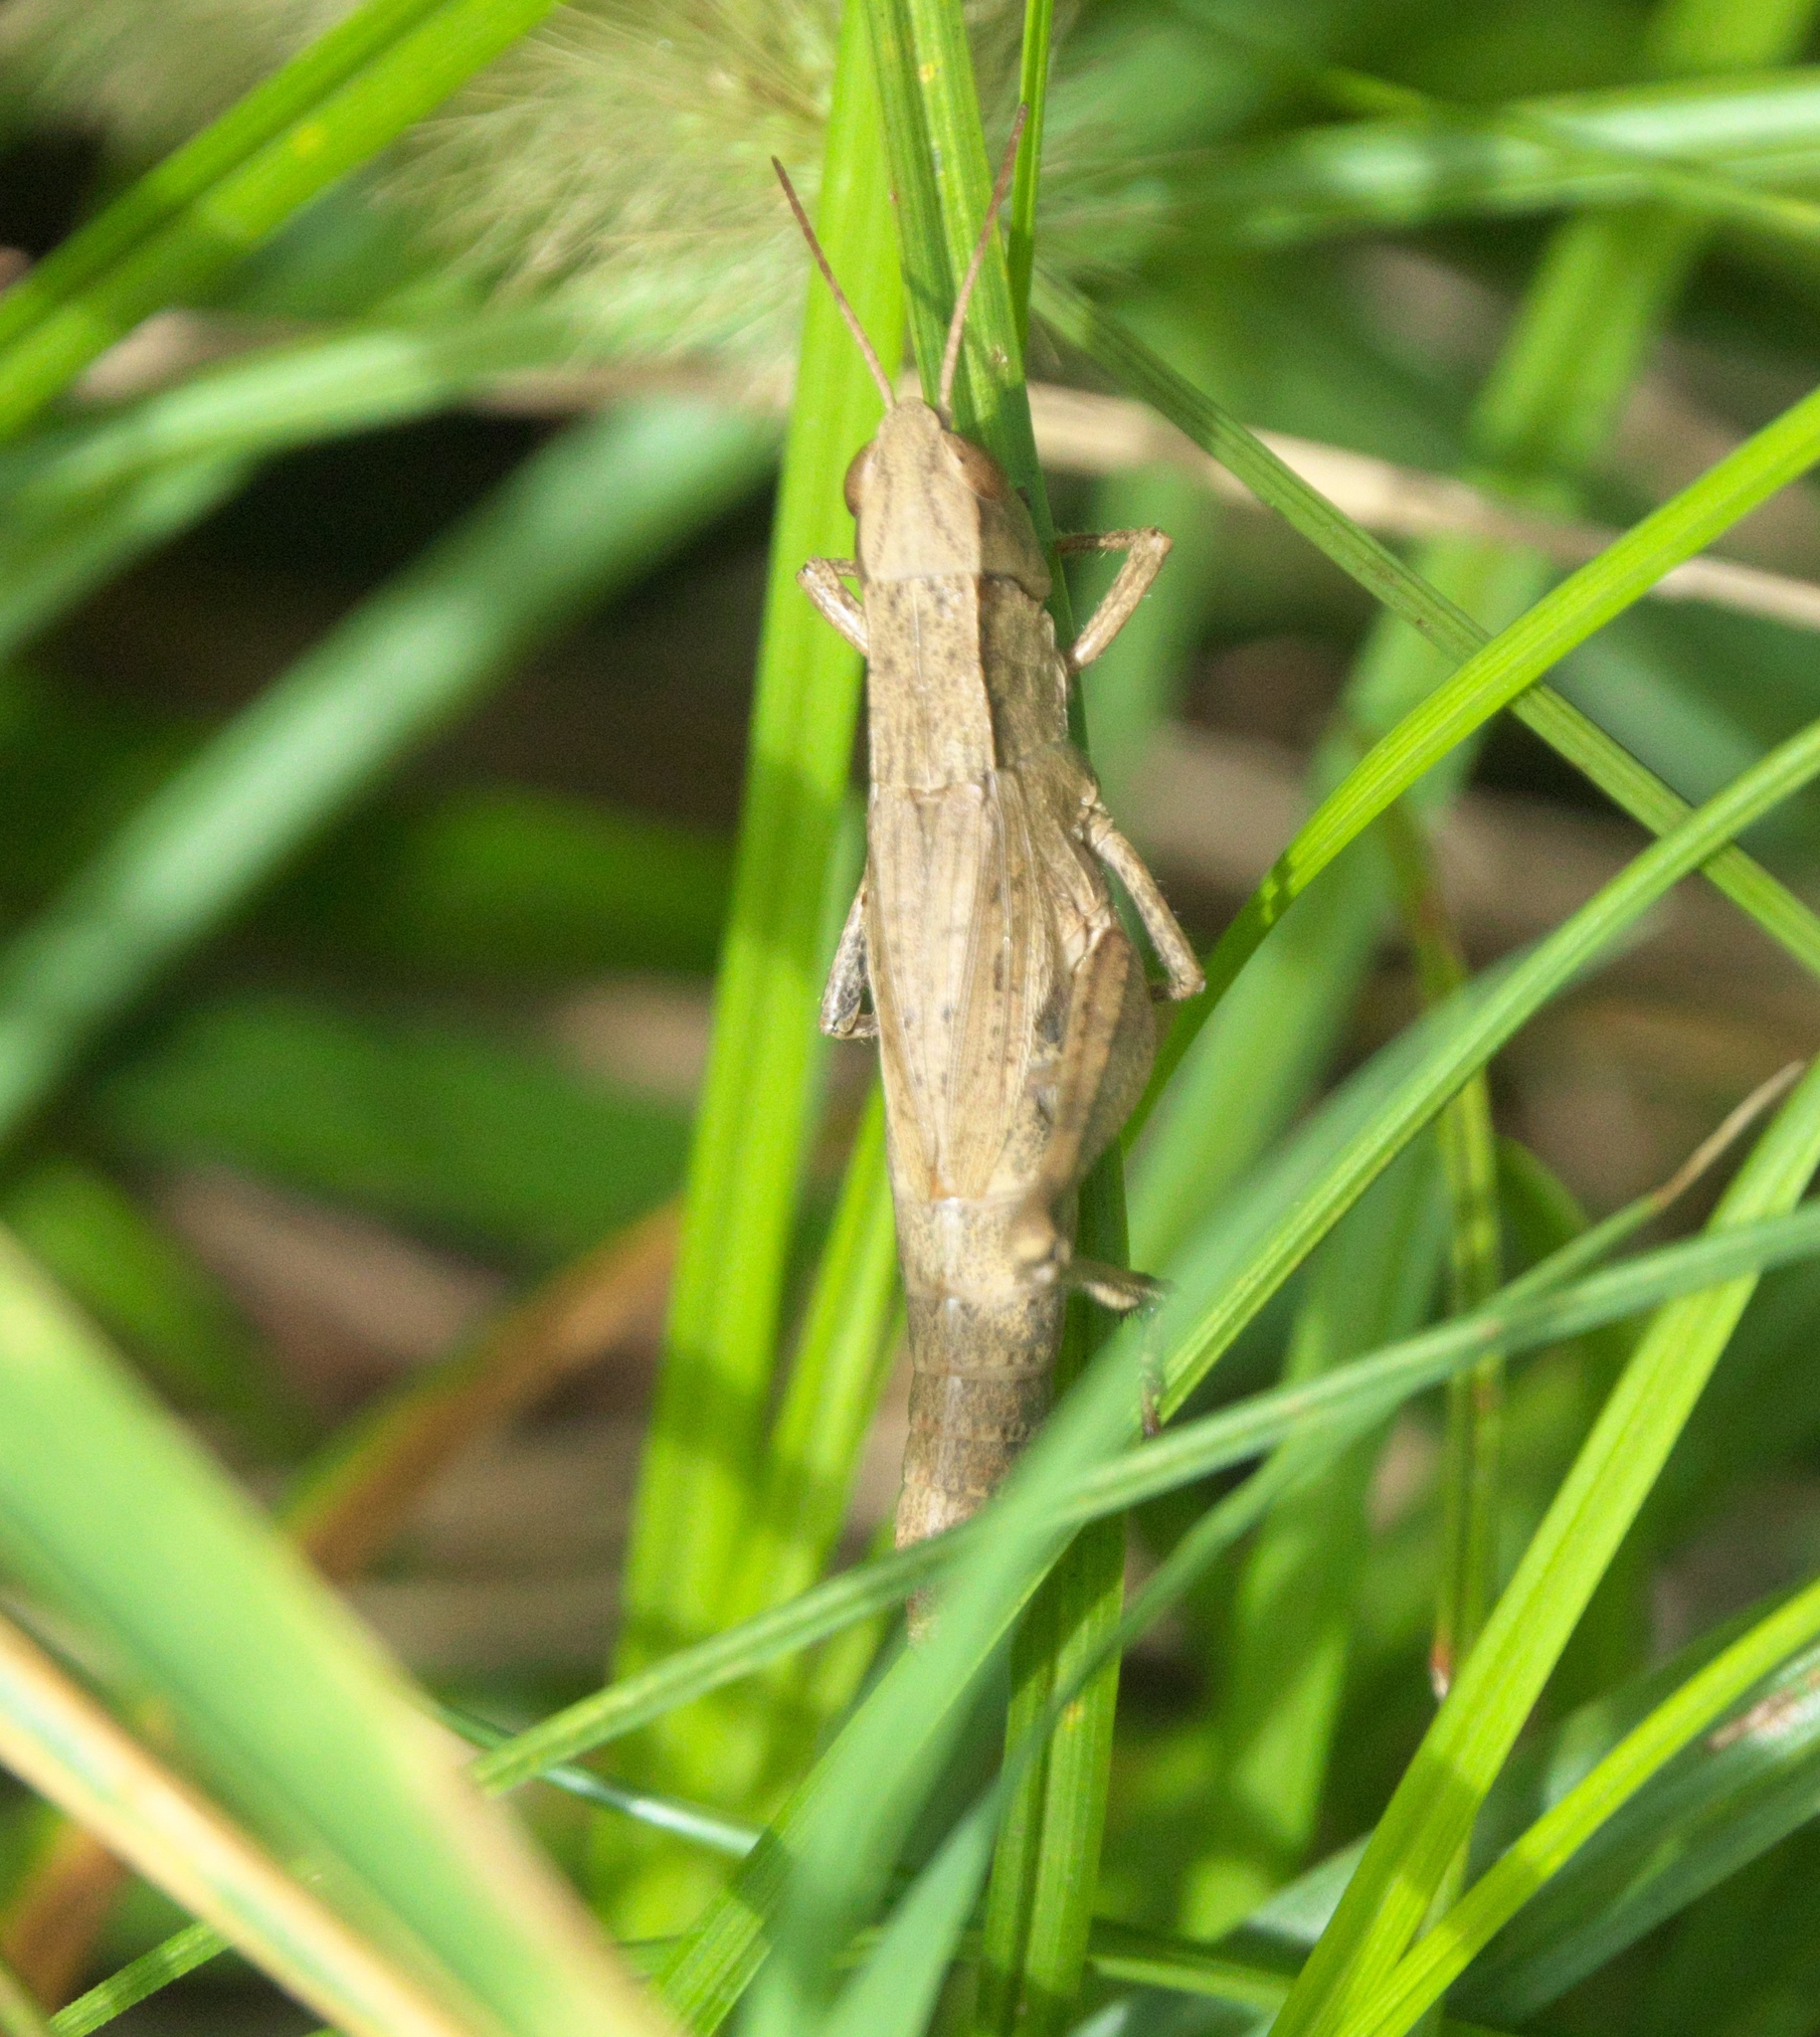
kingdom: Animalia
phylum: Arthropoda
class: Insecta
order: Orthoptera
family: Acrididae
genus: Dichromorpha
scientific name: Dichromorpha viridis
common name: Short-winged green grasshopper
